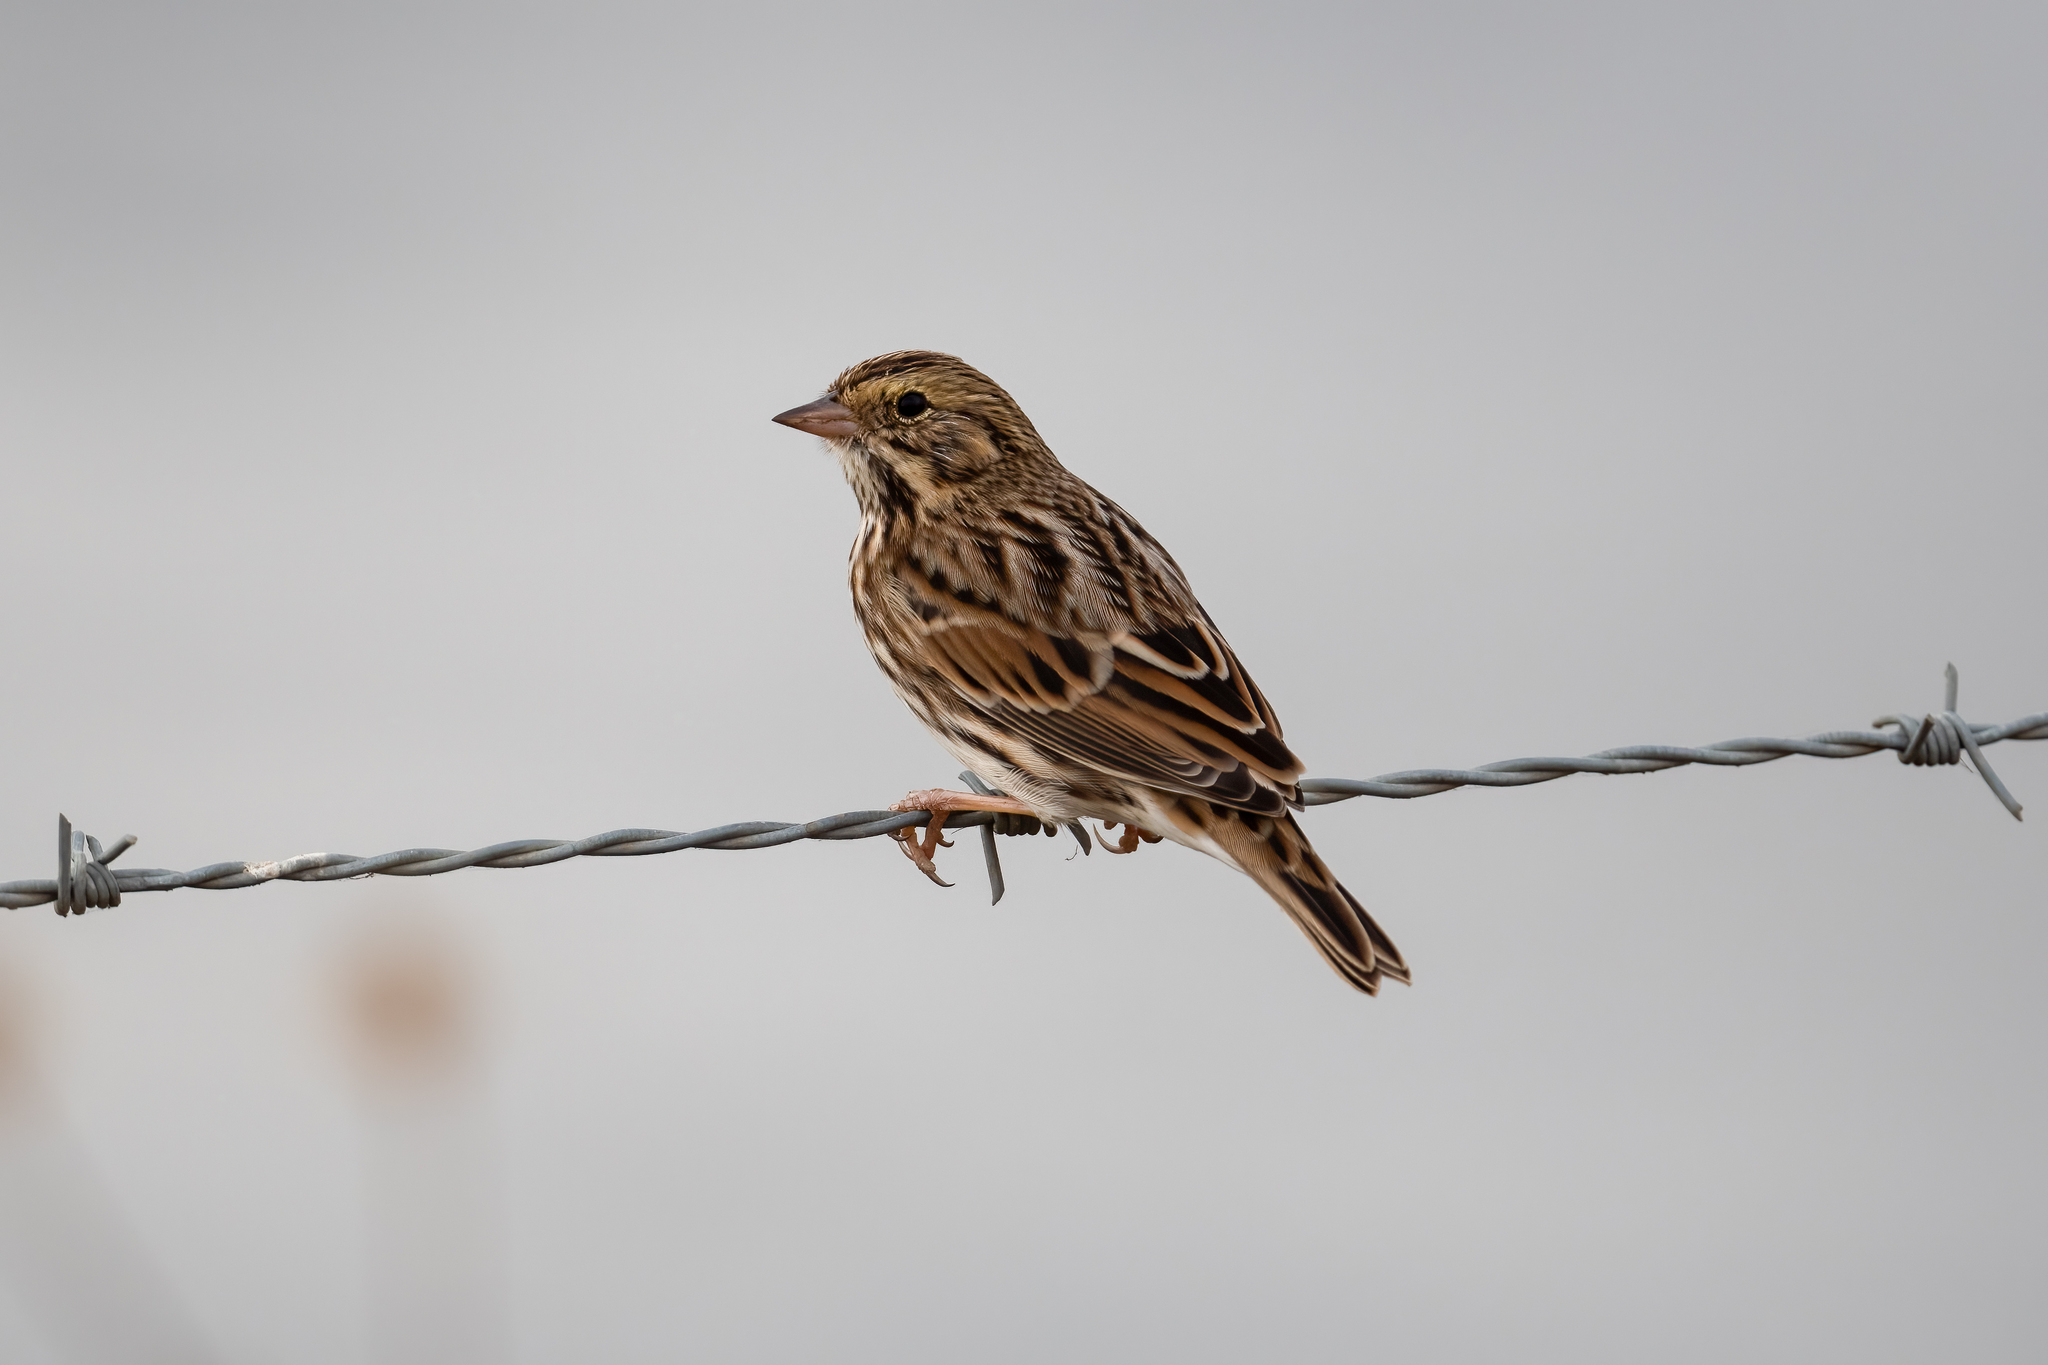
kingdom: Animalia
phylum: Chordata
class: Aves
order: Passeriformes
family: Passerellidae
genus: Passerculus
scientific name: Passerculus sandwichensis
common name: Savannah sparrow
